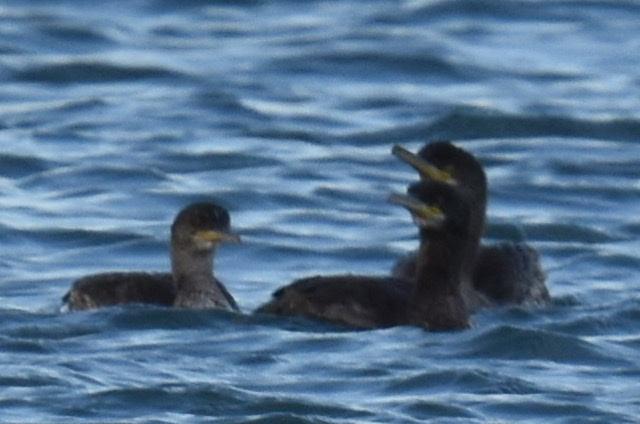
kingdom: Animalia
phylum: Chordata
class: Aves
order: Suliformes
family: Phalacrocoracidae
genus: Phalacrocorax
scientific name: Phalacrocorax aristotelis
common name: European shag
